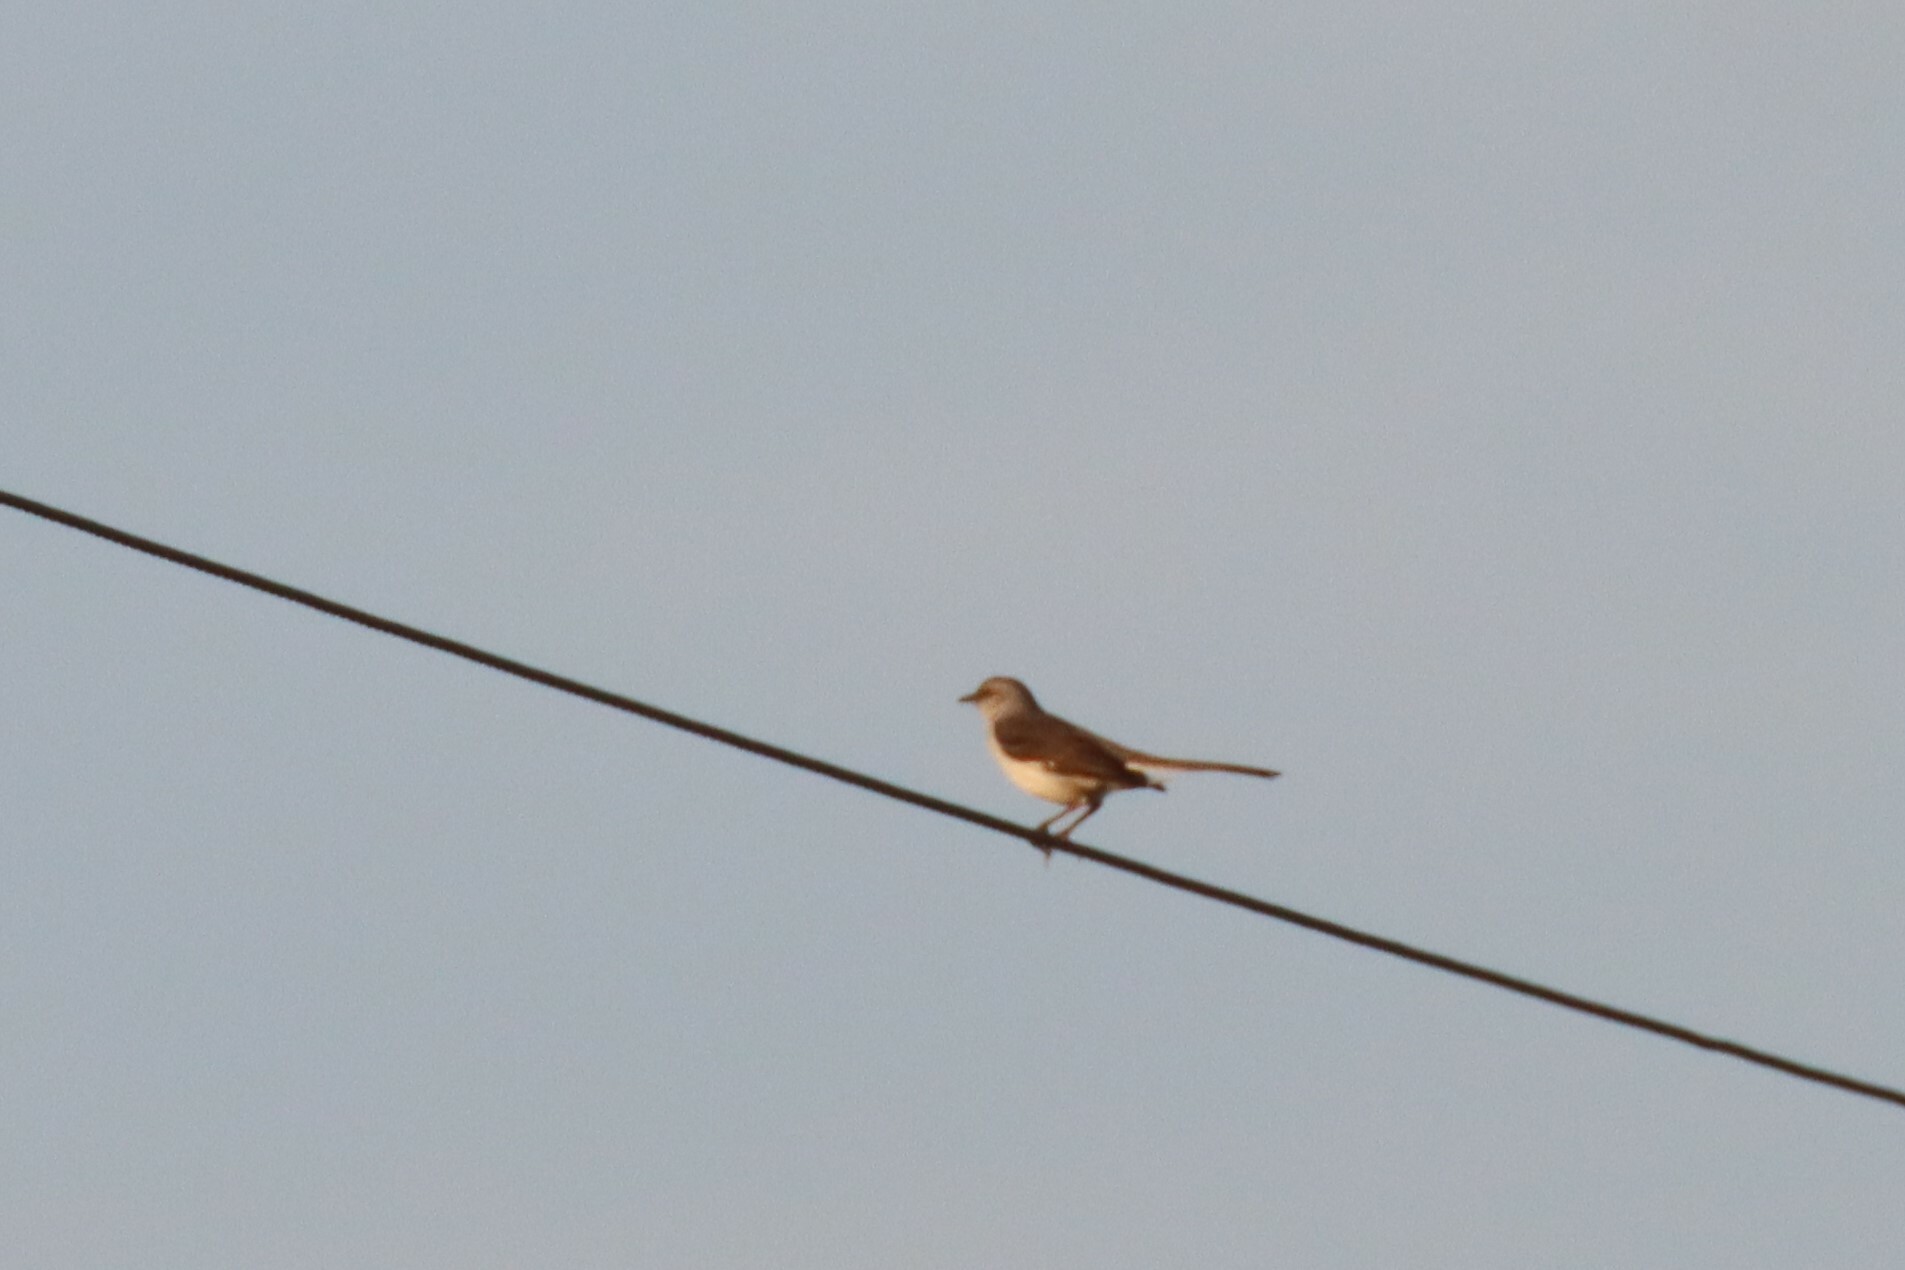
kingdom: Animalia
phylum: Chordata
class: Aves
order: Passeriformes
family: Mimidae
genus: Mimus
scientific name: Mimus polyglottos
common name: Northern mockingbird
